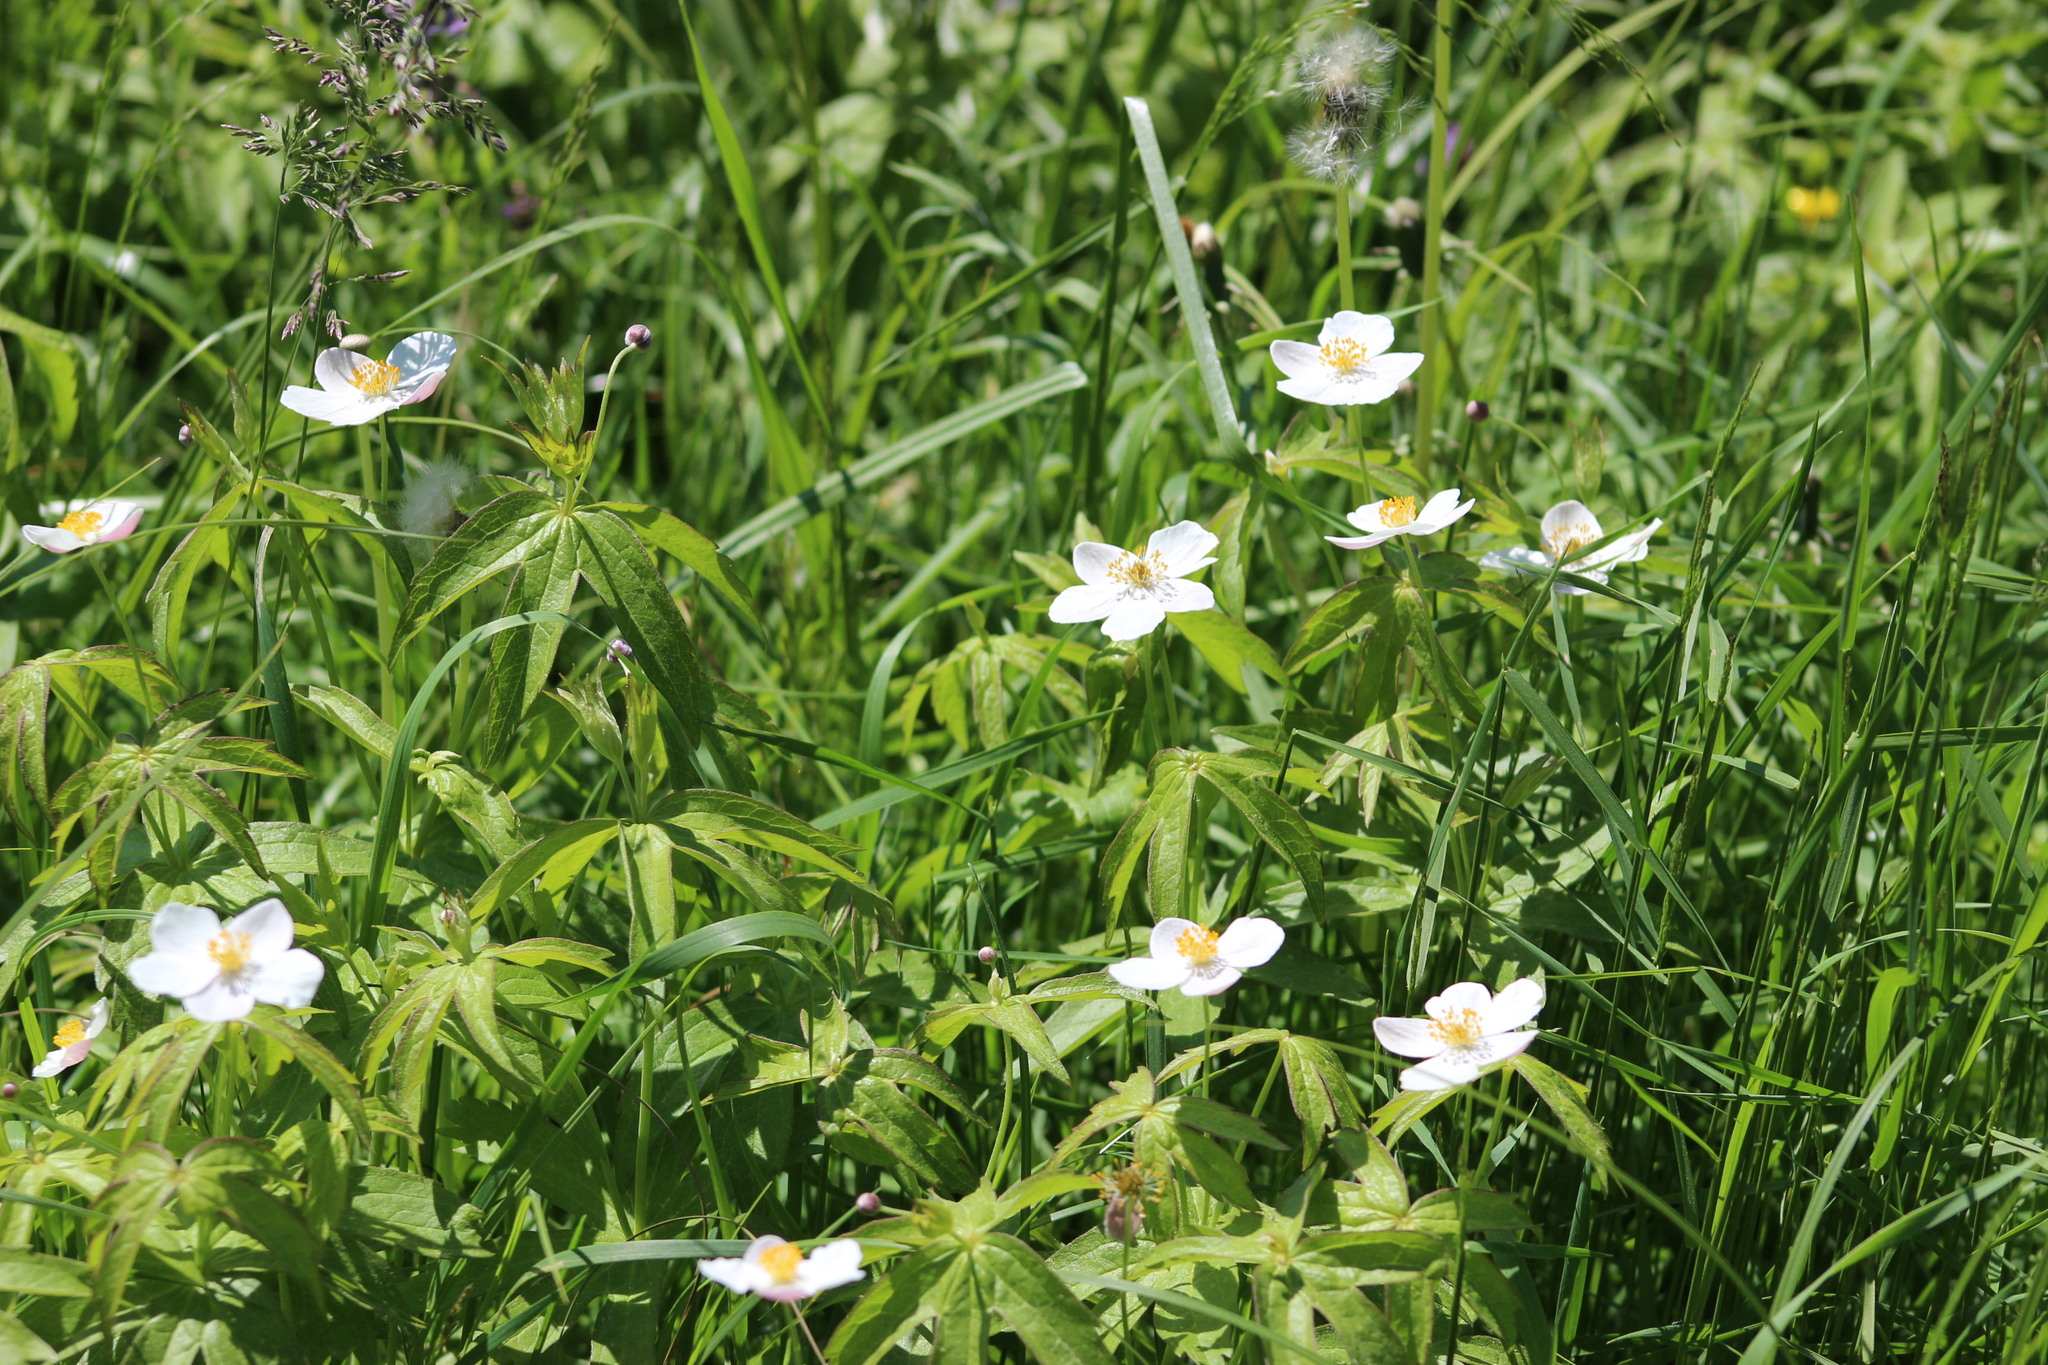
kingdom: Plantae
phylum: Tracheophyta
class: Magnoliopsida
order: Ranunculales
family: Ranunculaceae
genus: Anemonastrum
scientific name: Anemonastrum dichotomum
